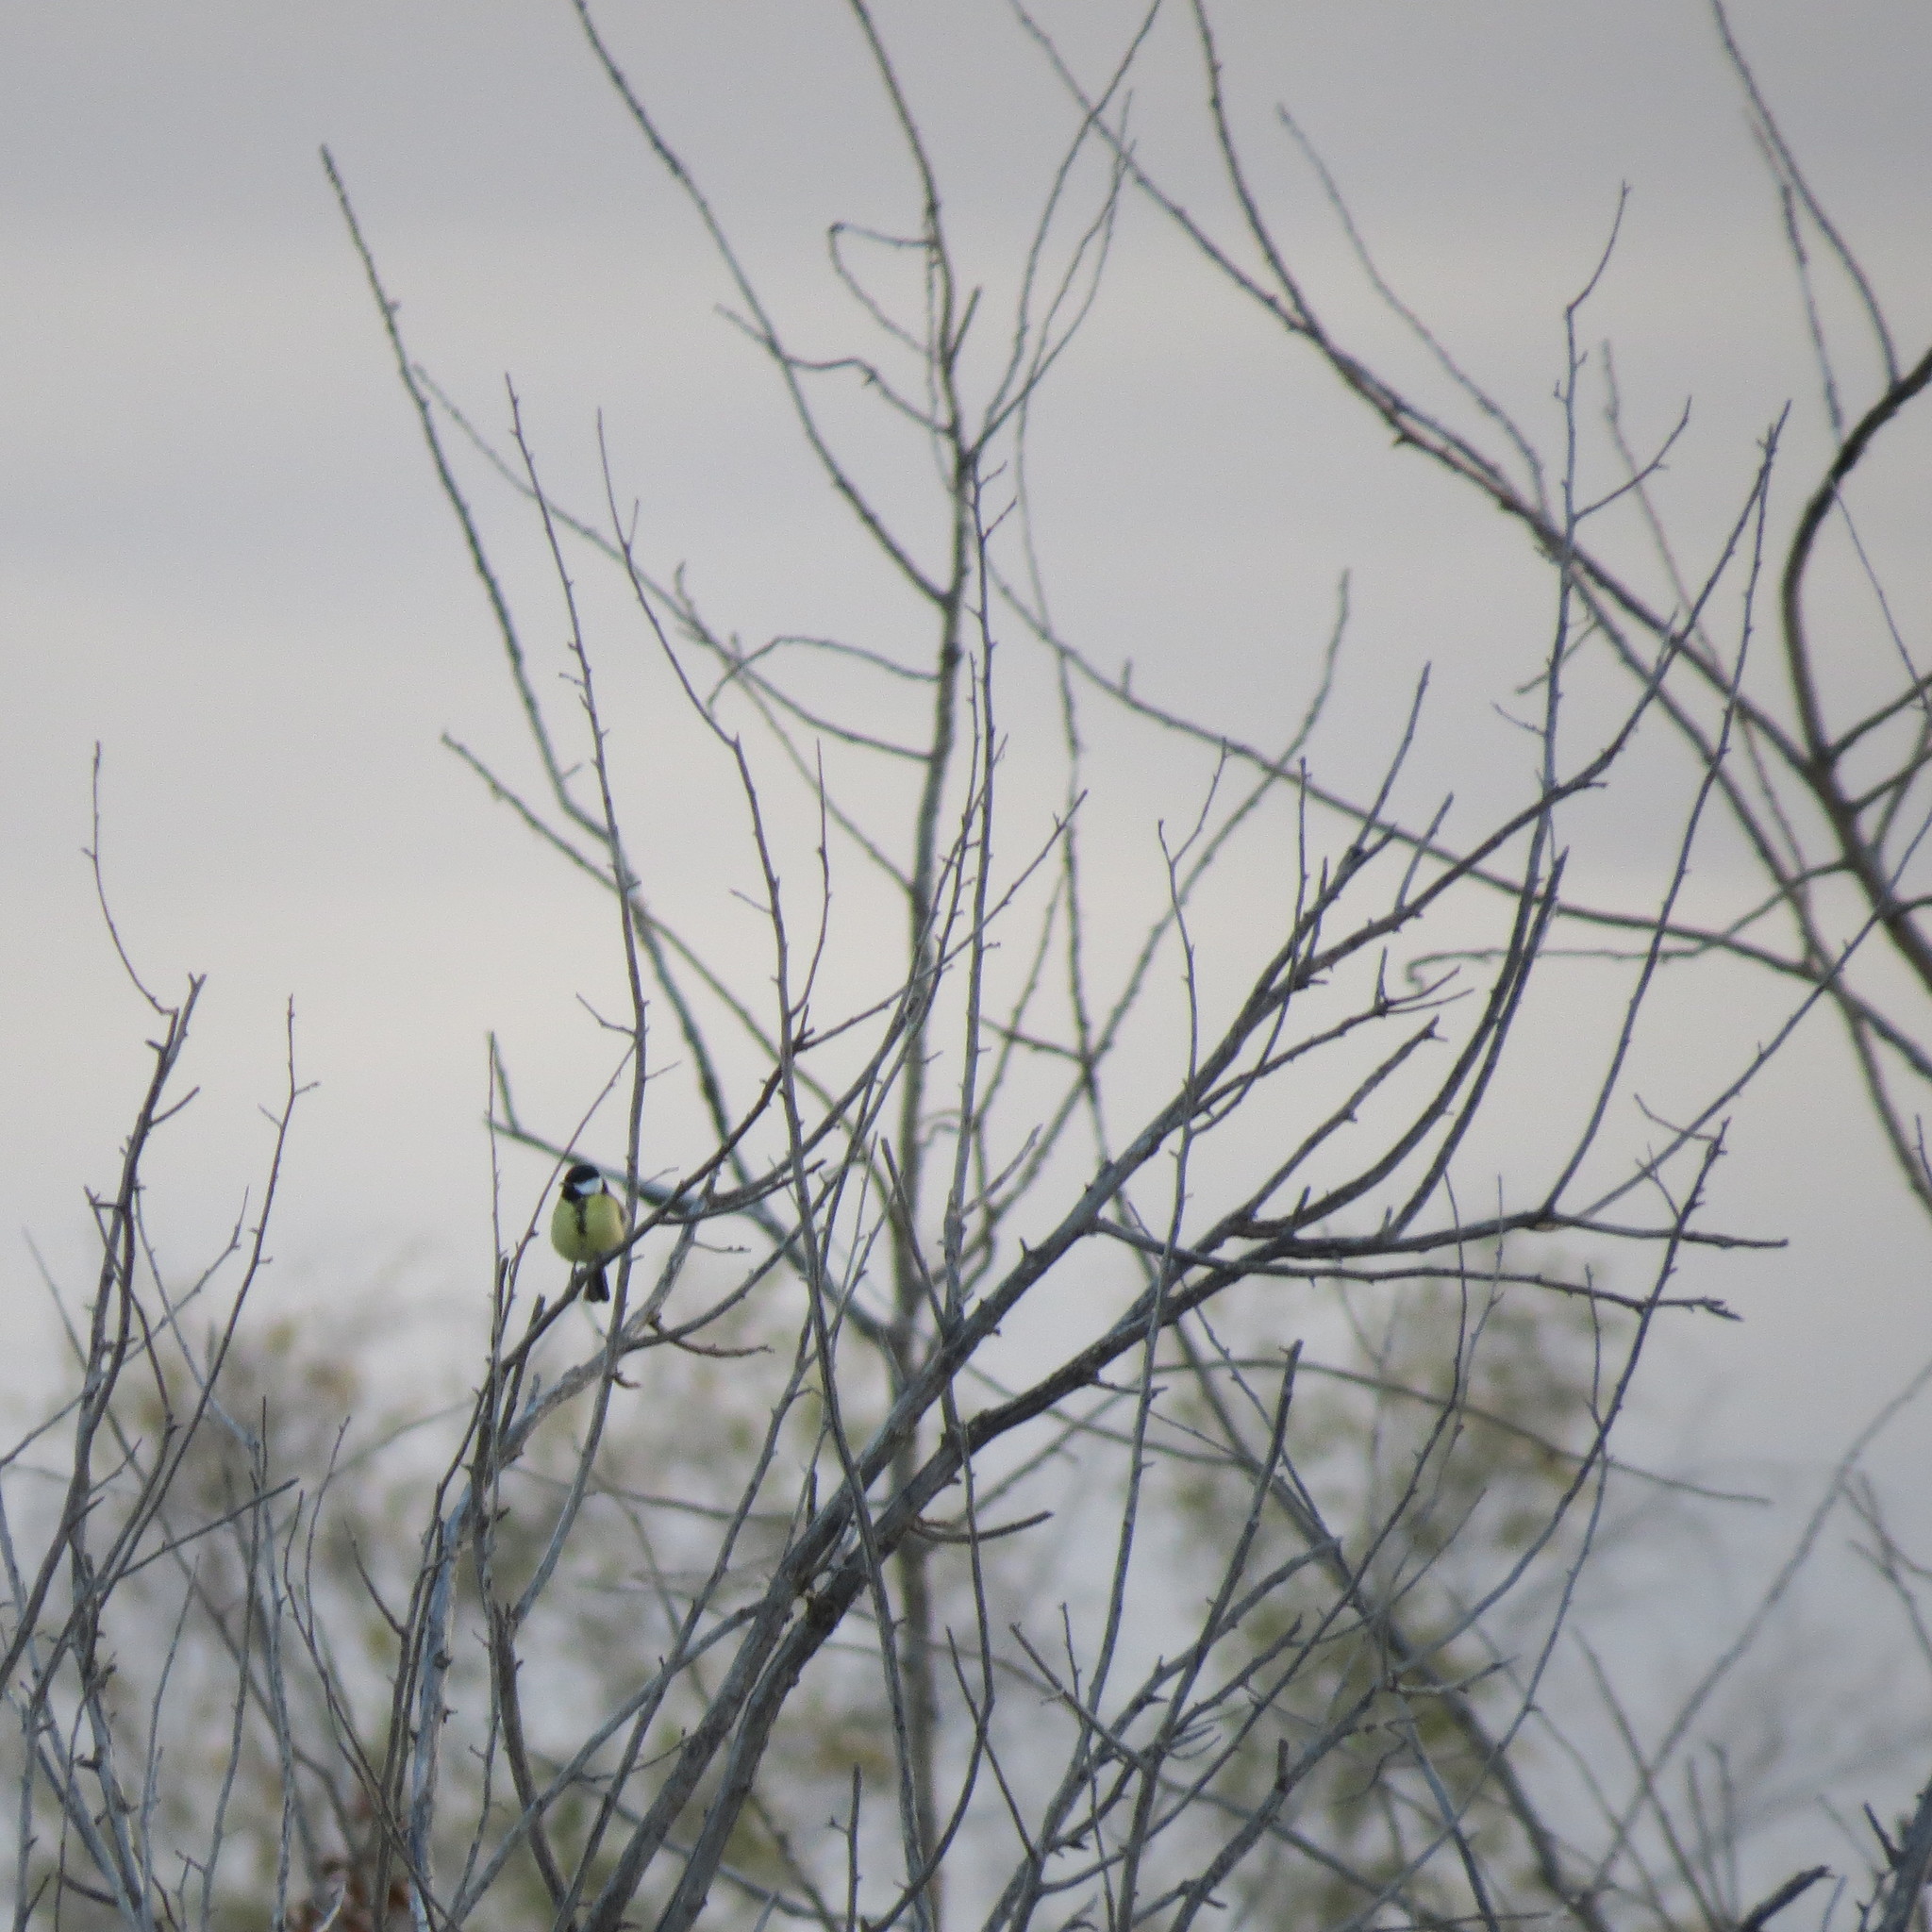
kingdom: Animalia
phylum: Chordata
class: Aves
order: Passeriformes
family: Paridae
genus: Parus
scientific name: Parus major
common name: Great tit
